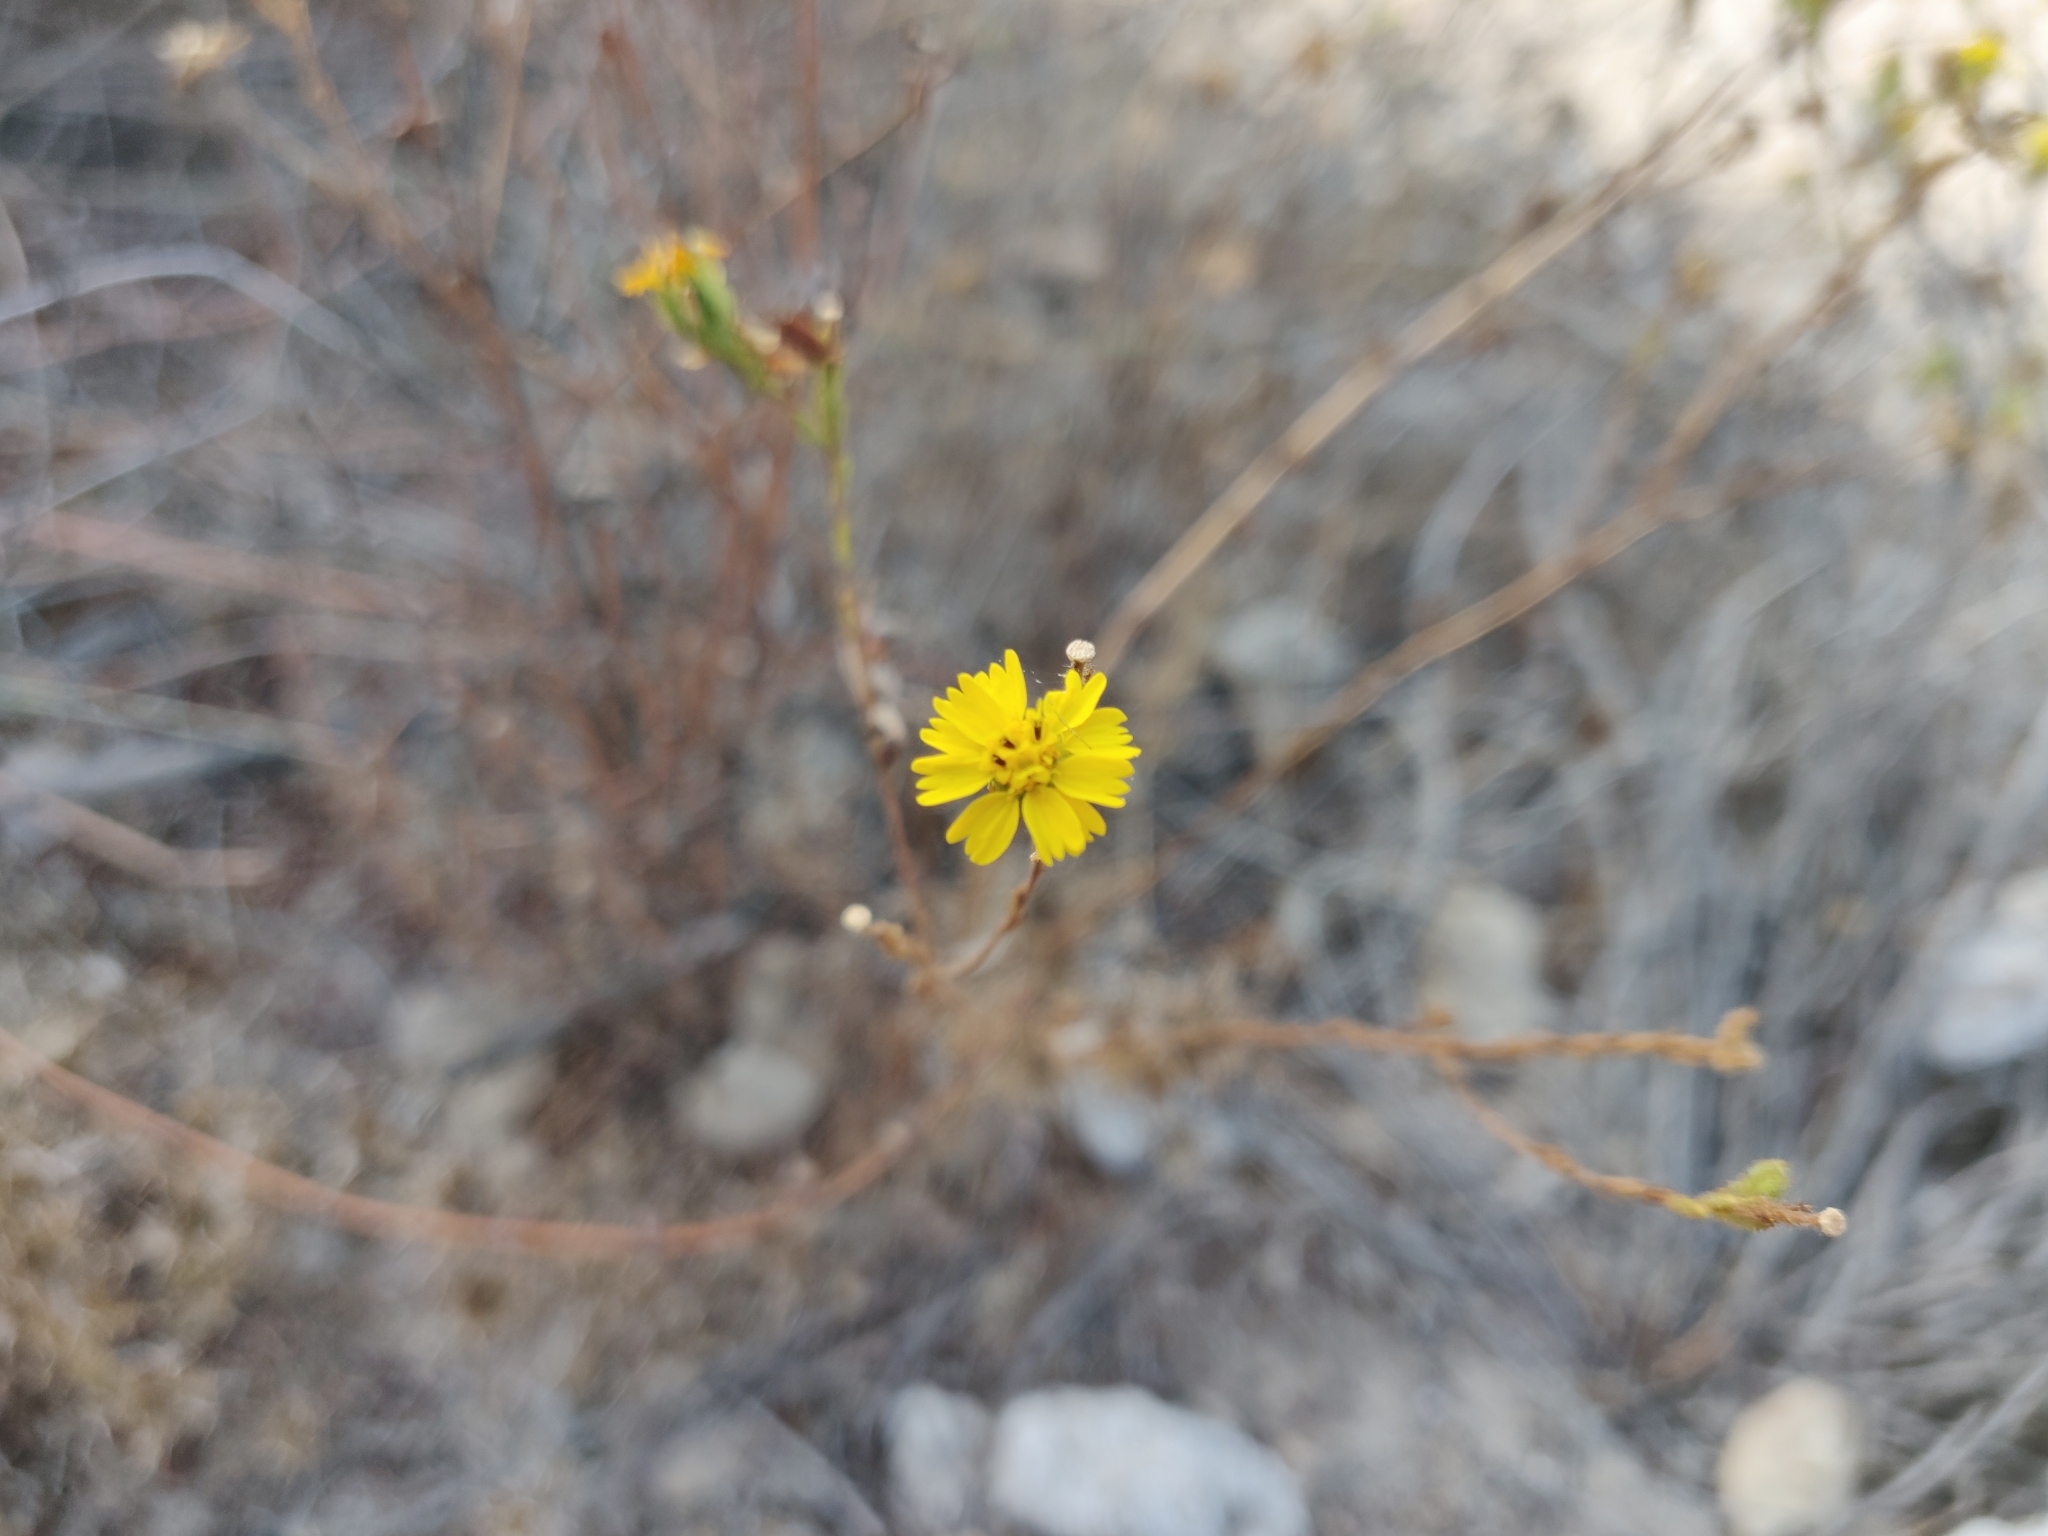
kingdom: Plantae
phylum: Tracheophyta
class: Magnoliopsida
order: Asterales
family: Asteraceae
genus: Deinandra
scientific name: Deinandra corymbosa
